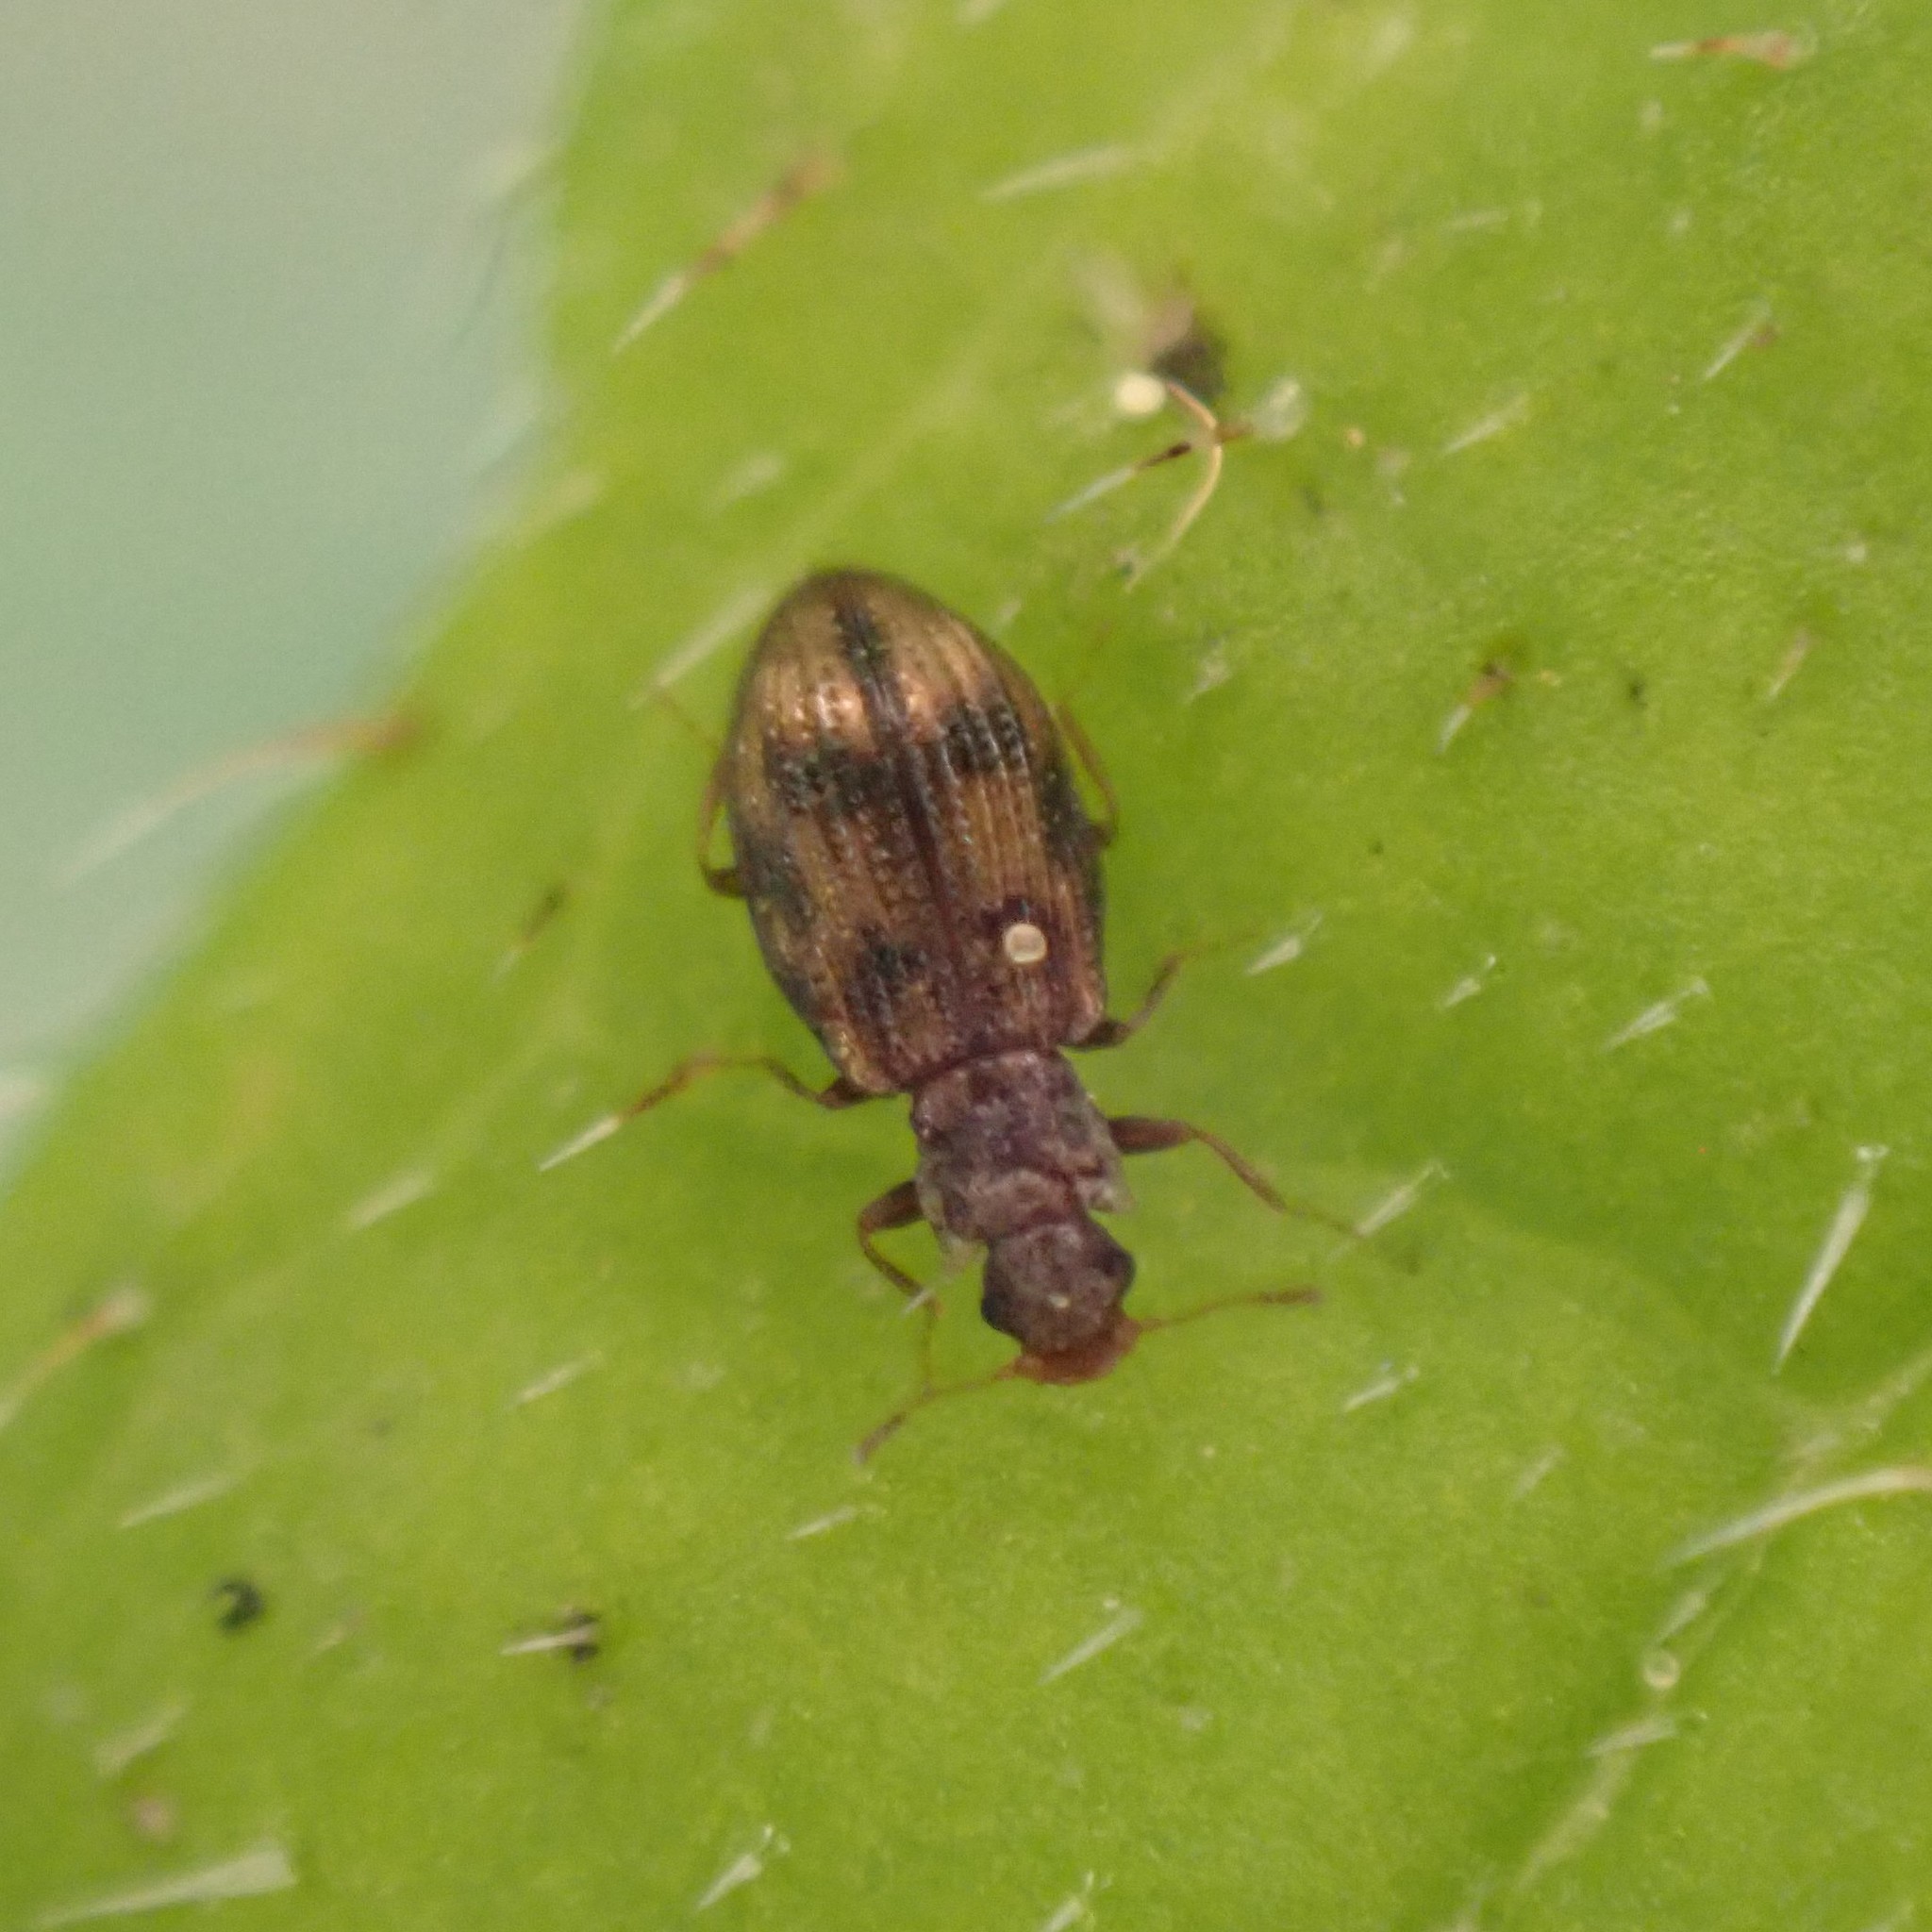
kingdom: Animalia
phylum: Arthropoda
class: Insecta
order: Coleoptera
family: Latridiidae
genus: Cartodere
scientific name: Cartodere bifasciata
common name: Plaster beetle
